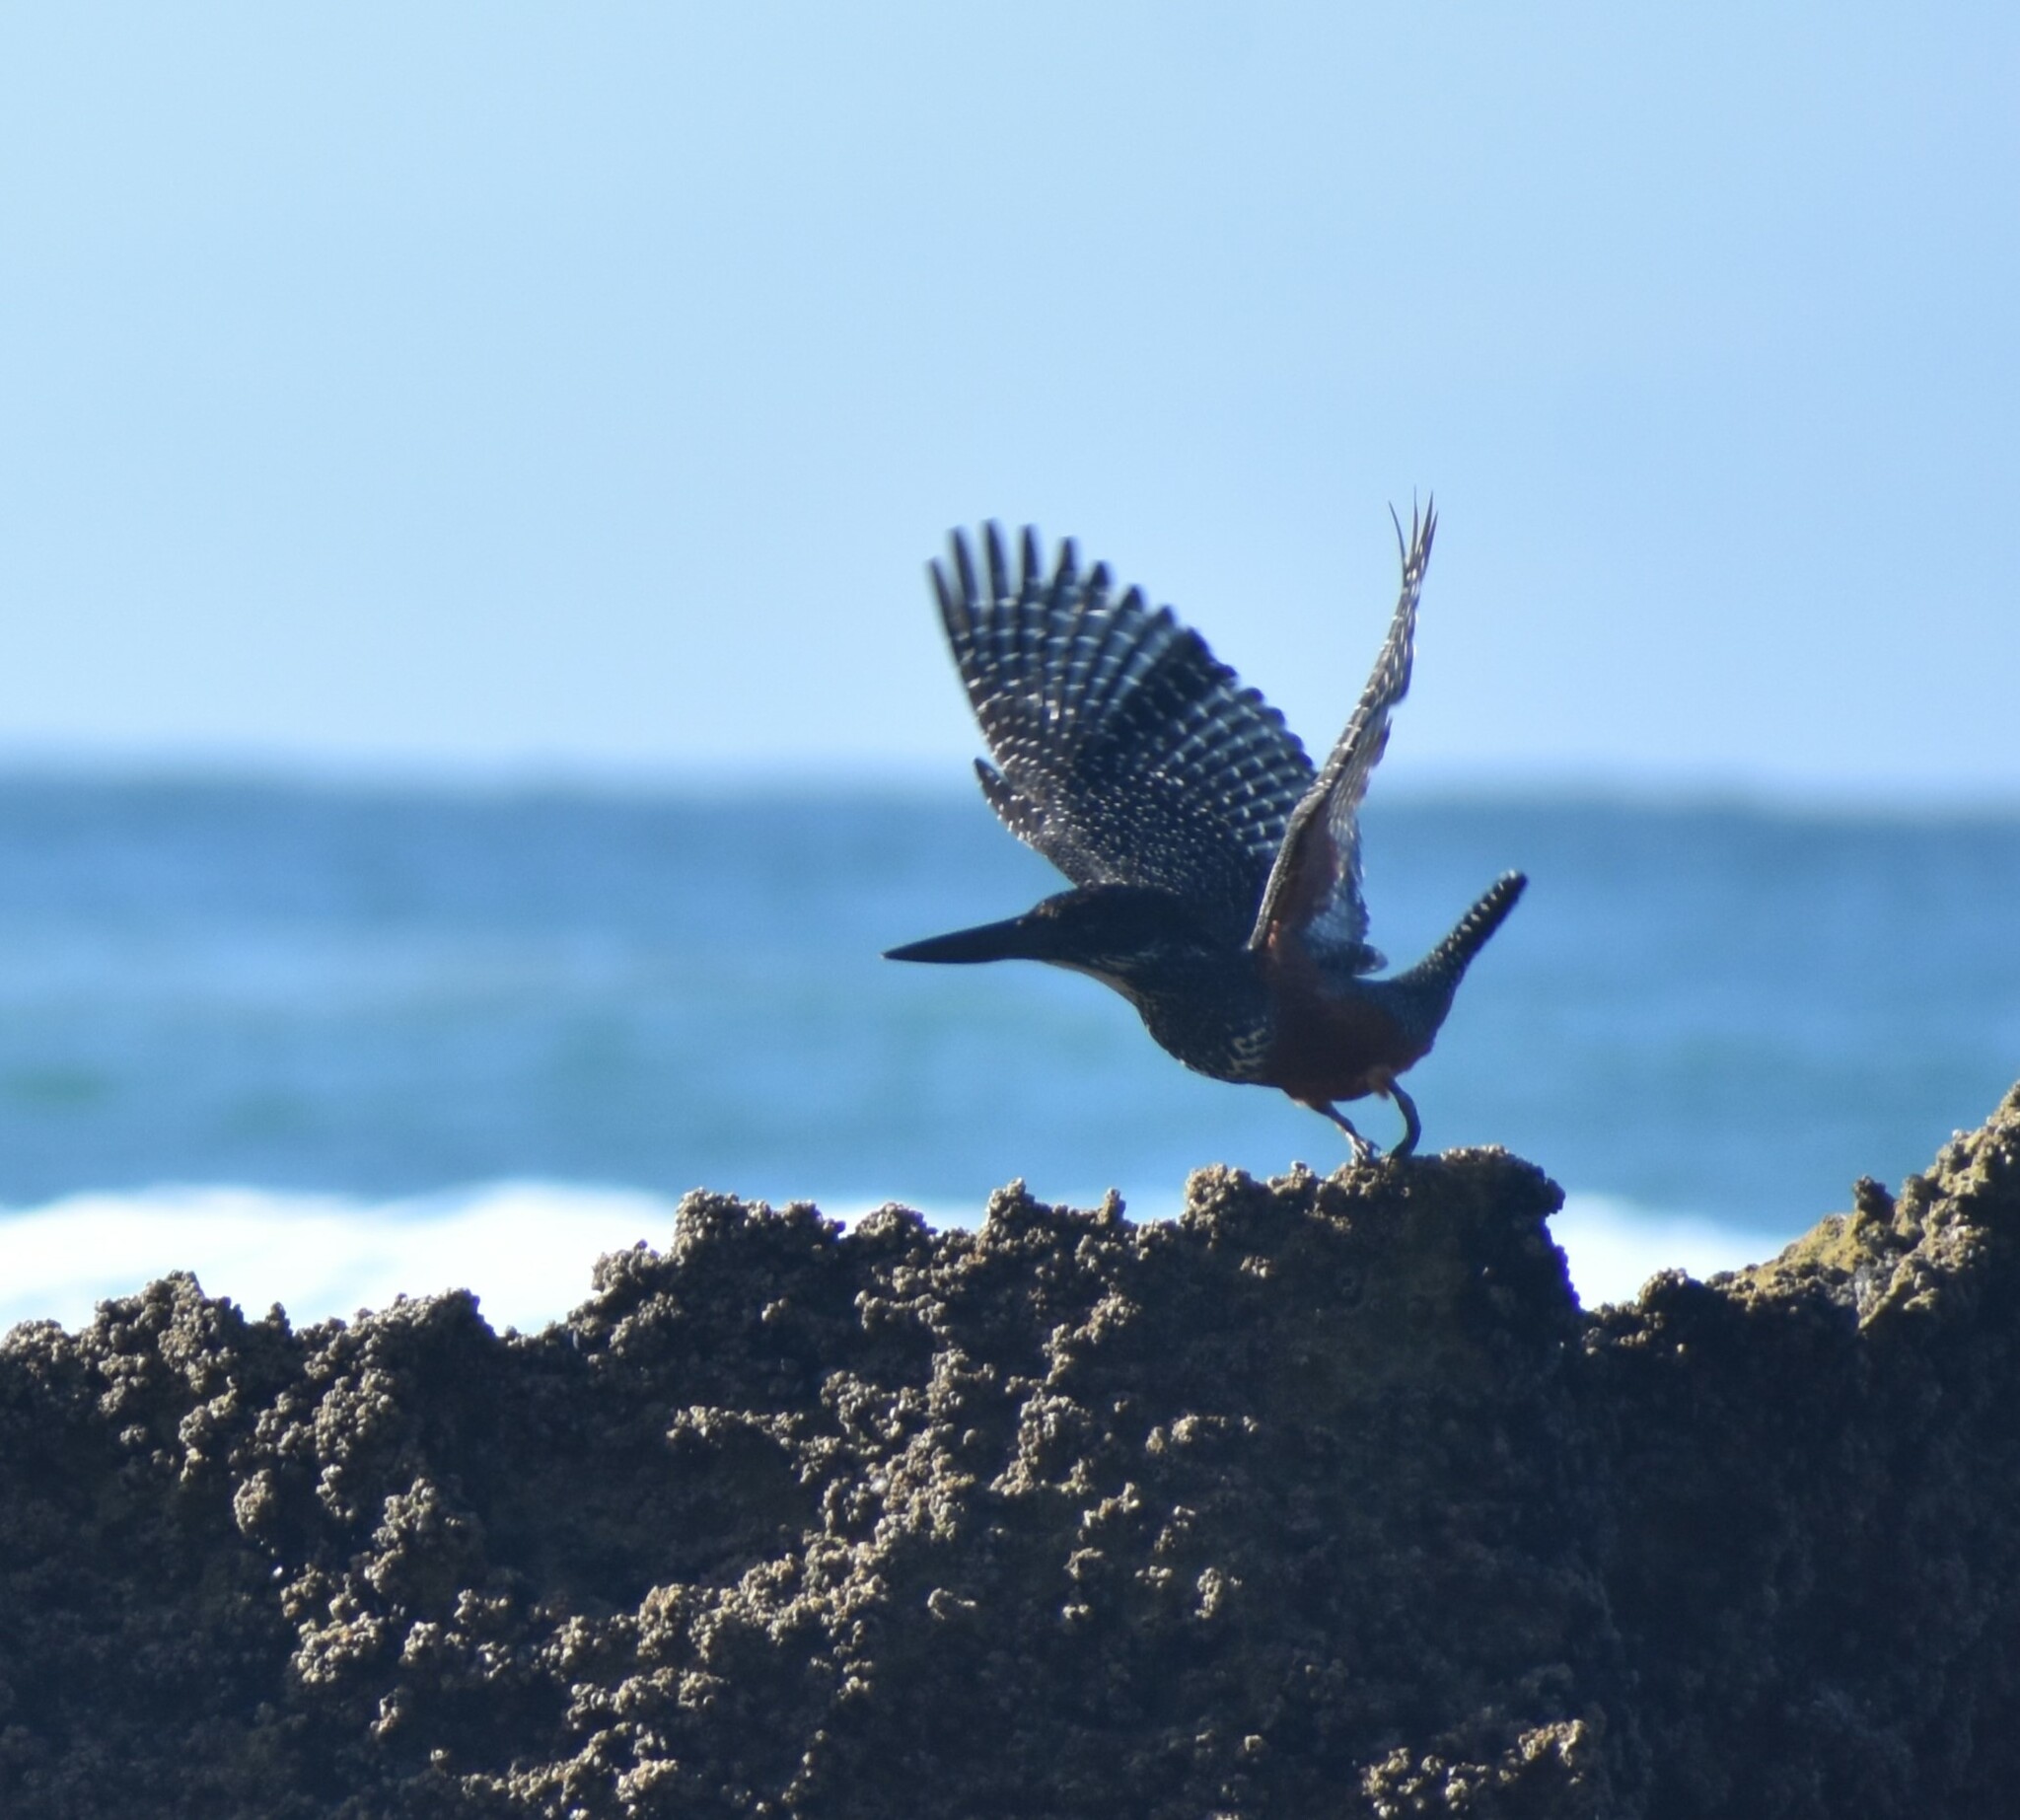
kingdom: Animalia
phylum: Chordata
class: Aves
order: Coraciiformes
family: Alcedinidae
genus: Megaceryle
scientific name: Megaceryle maxima
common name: Giant kingfisher
